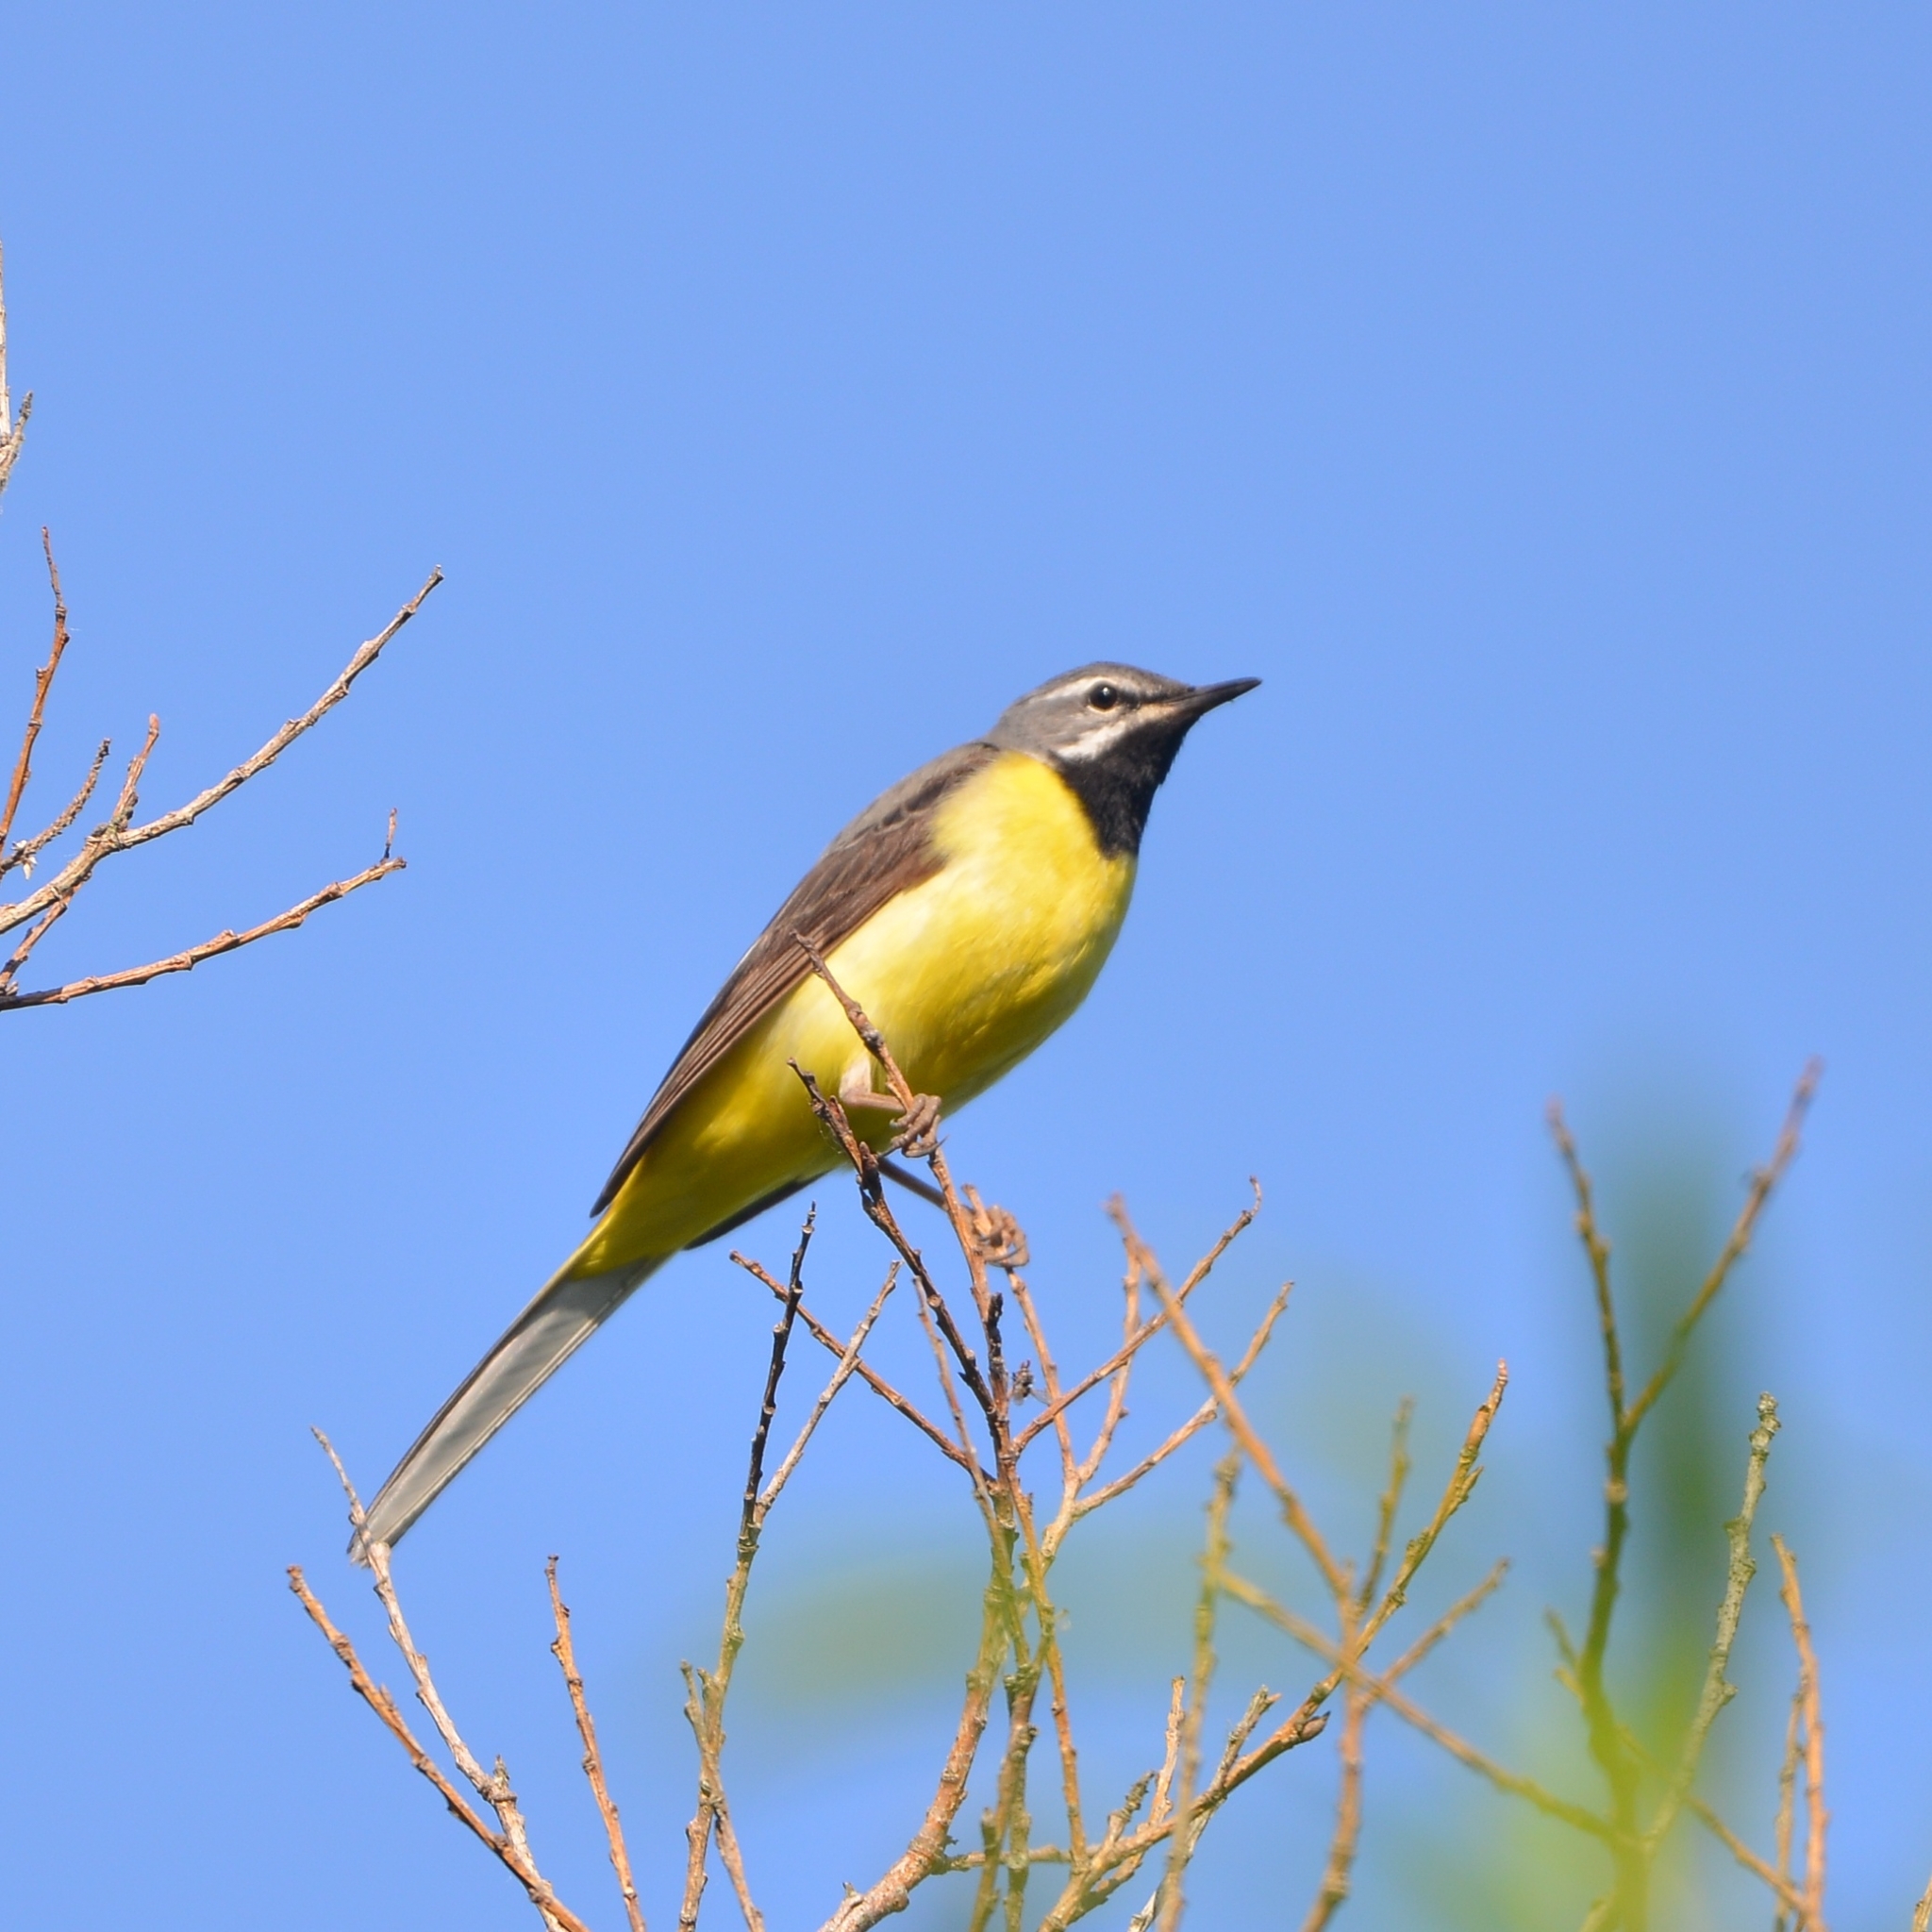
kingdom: Animalia
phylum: Chordata
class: Aves
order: Passeriformes
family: Motacillidae
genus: Motacilla
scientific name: Motacilla cinerea
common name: Grey wagtail
